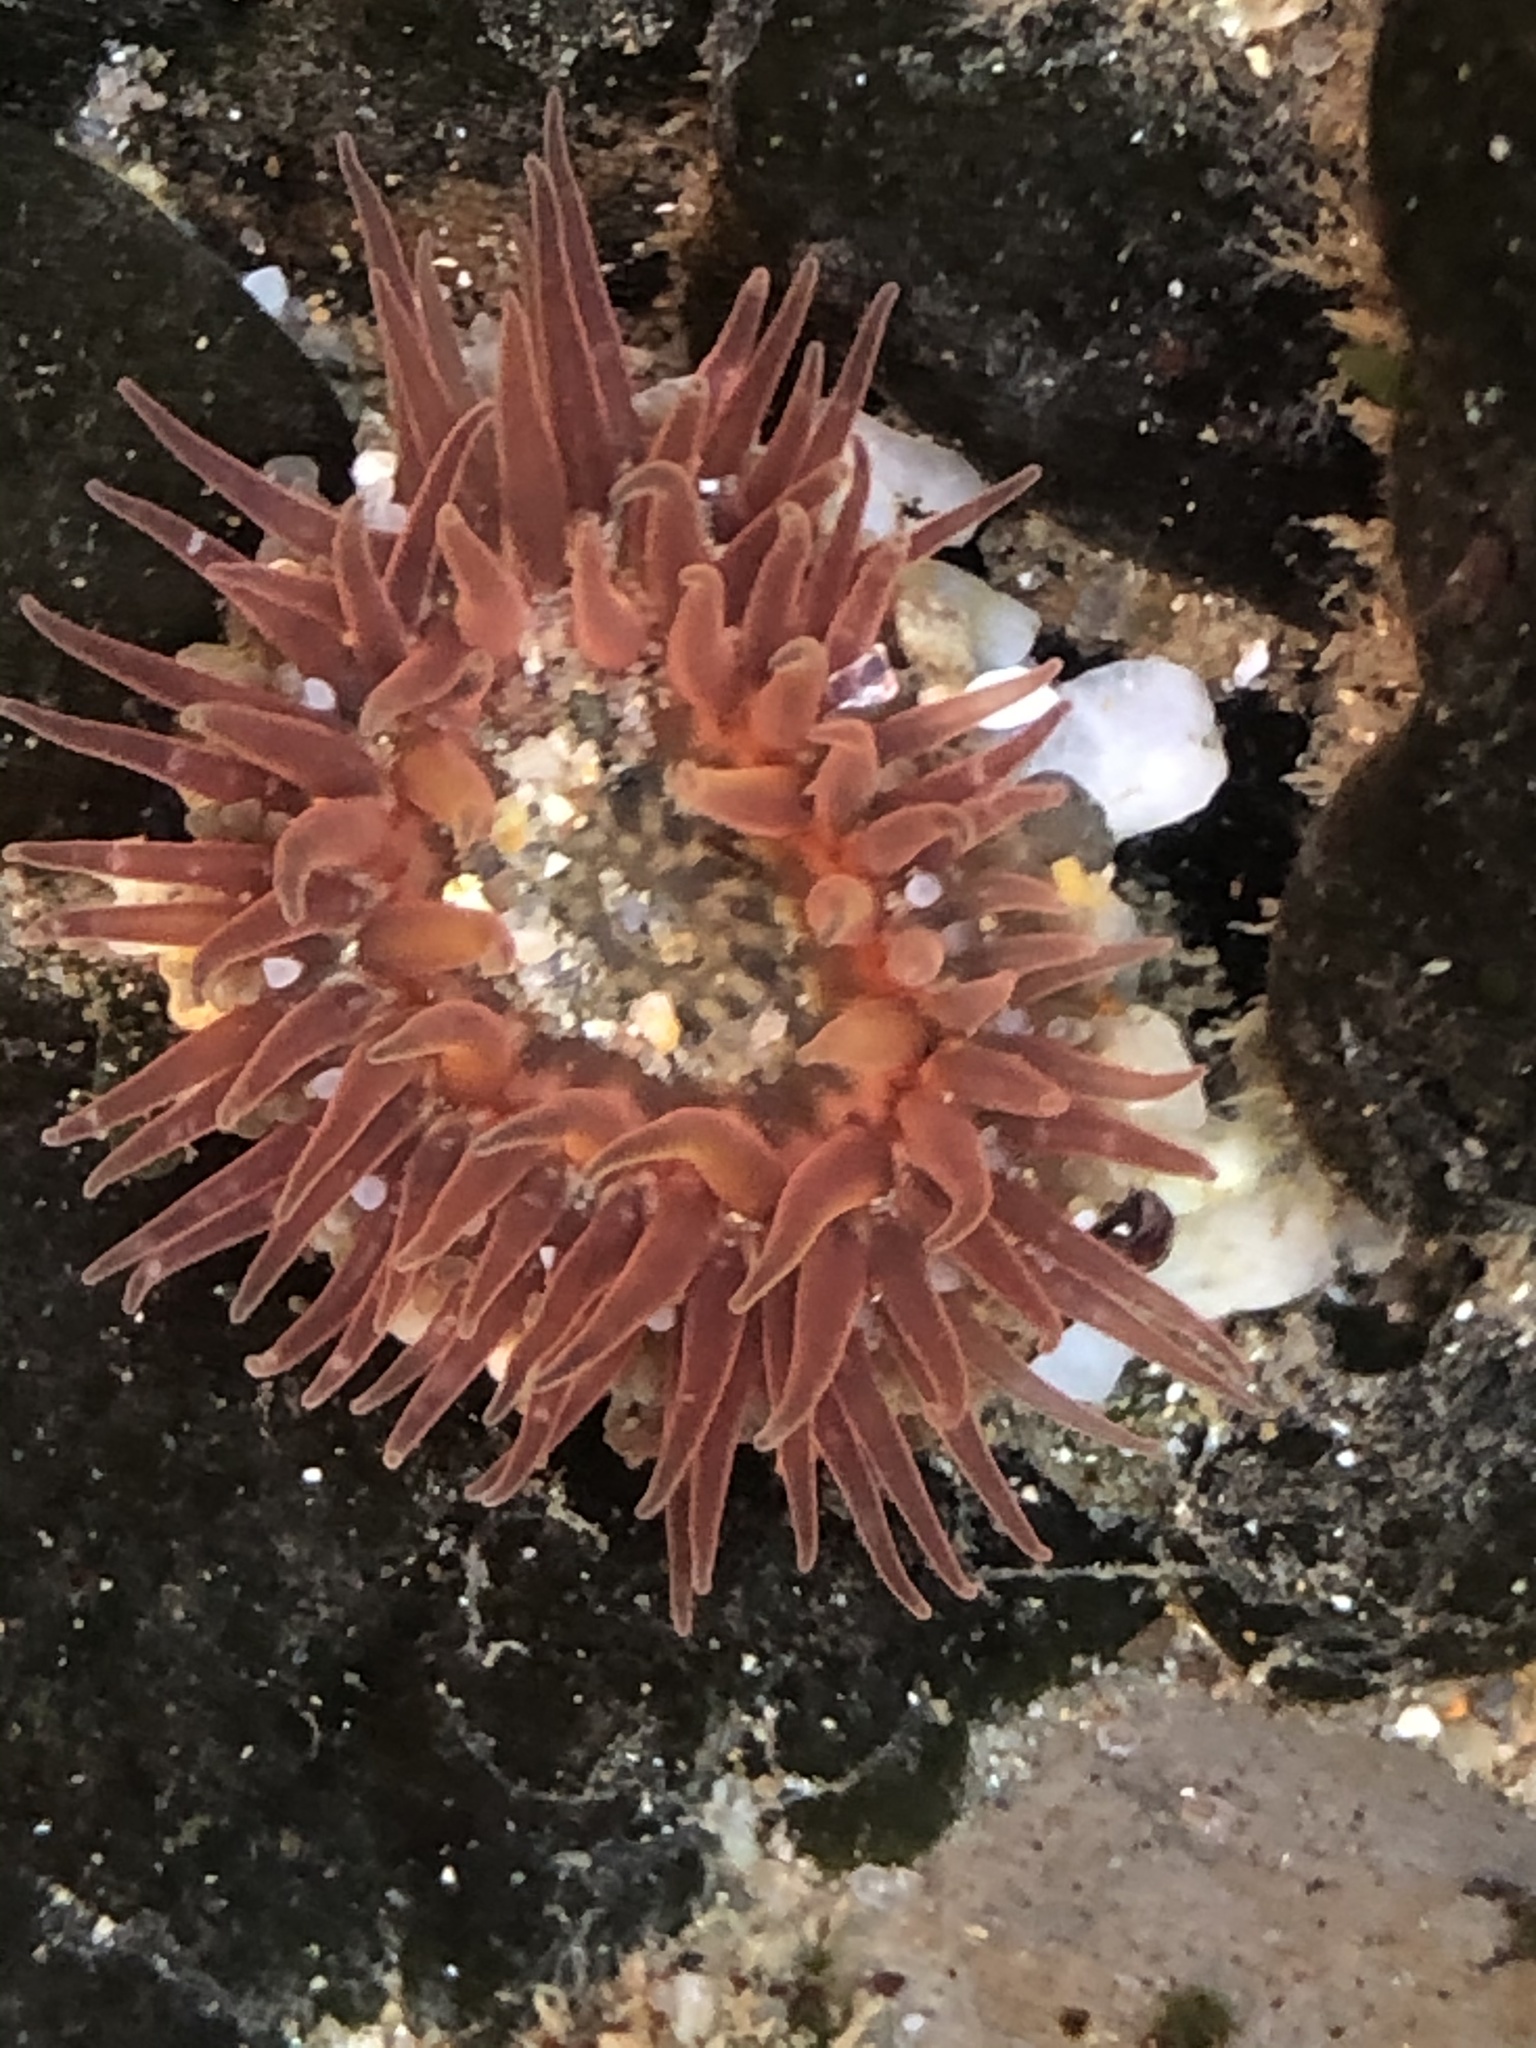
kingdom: Animalia
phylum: Cnidaria
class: Anthozoa
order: Actiniaria
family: Actiniidae
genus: Anthopleura
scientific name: Anthopleura artemisia
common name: Buried sea anemone
